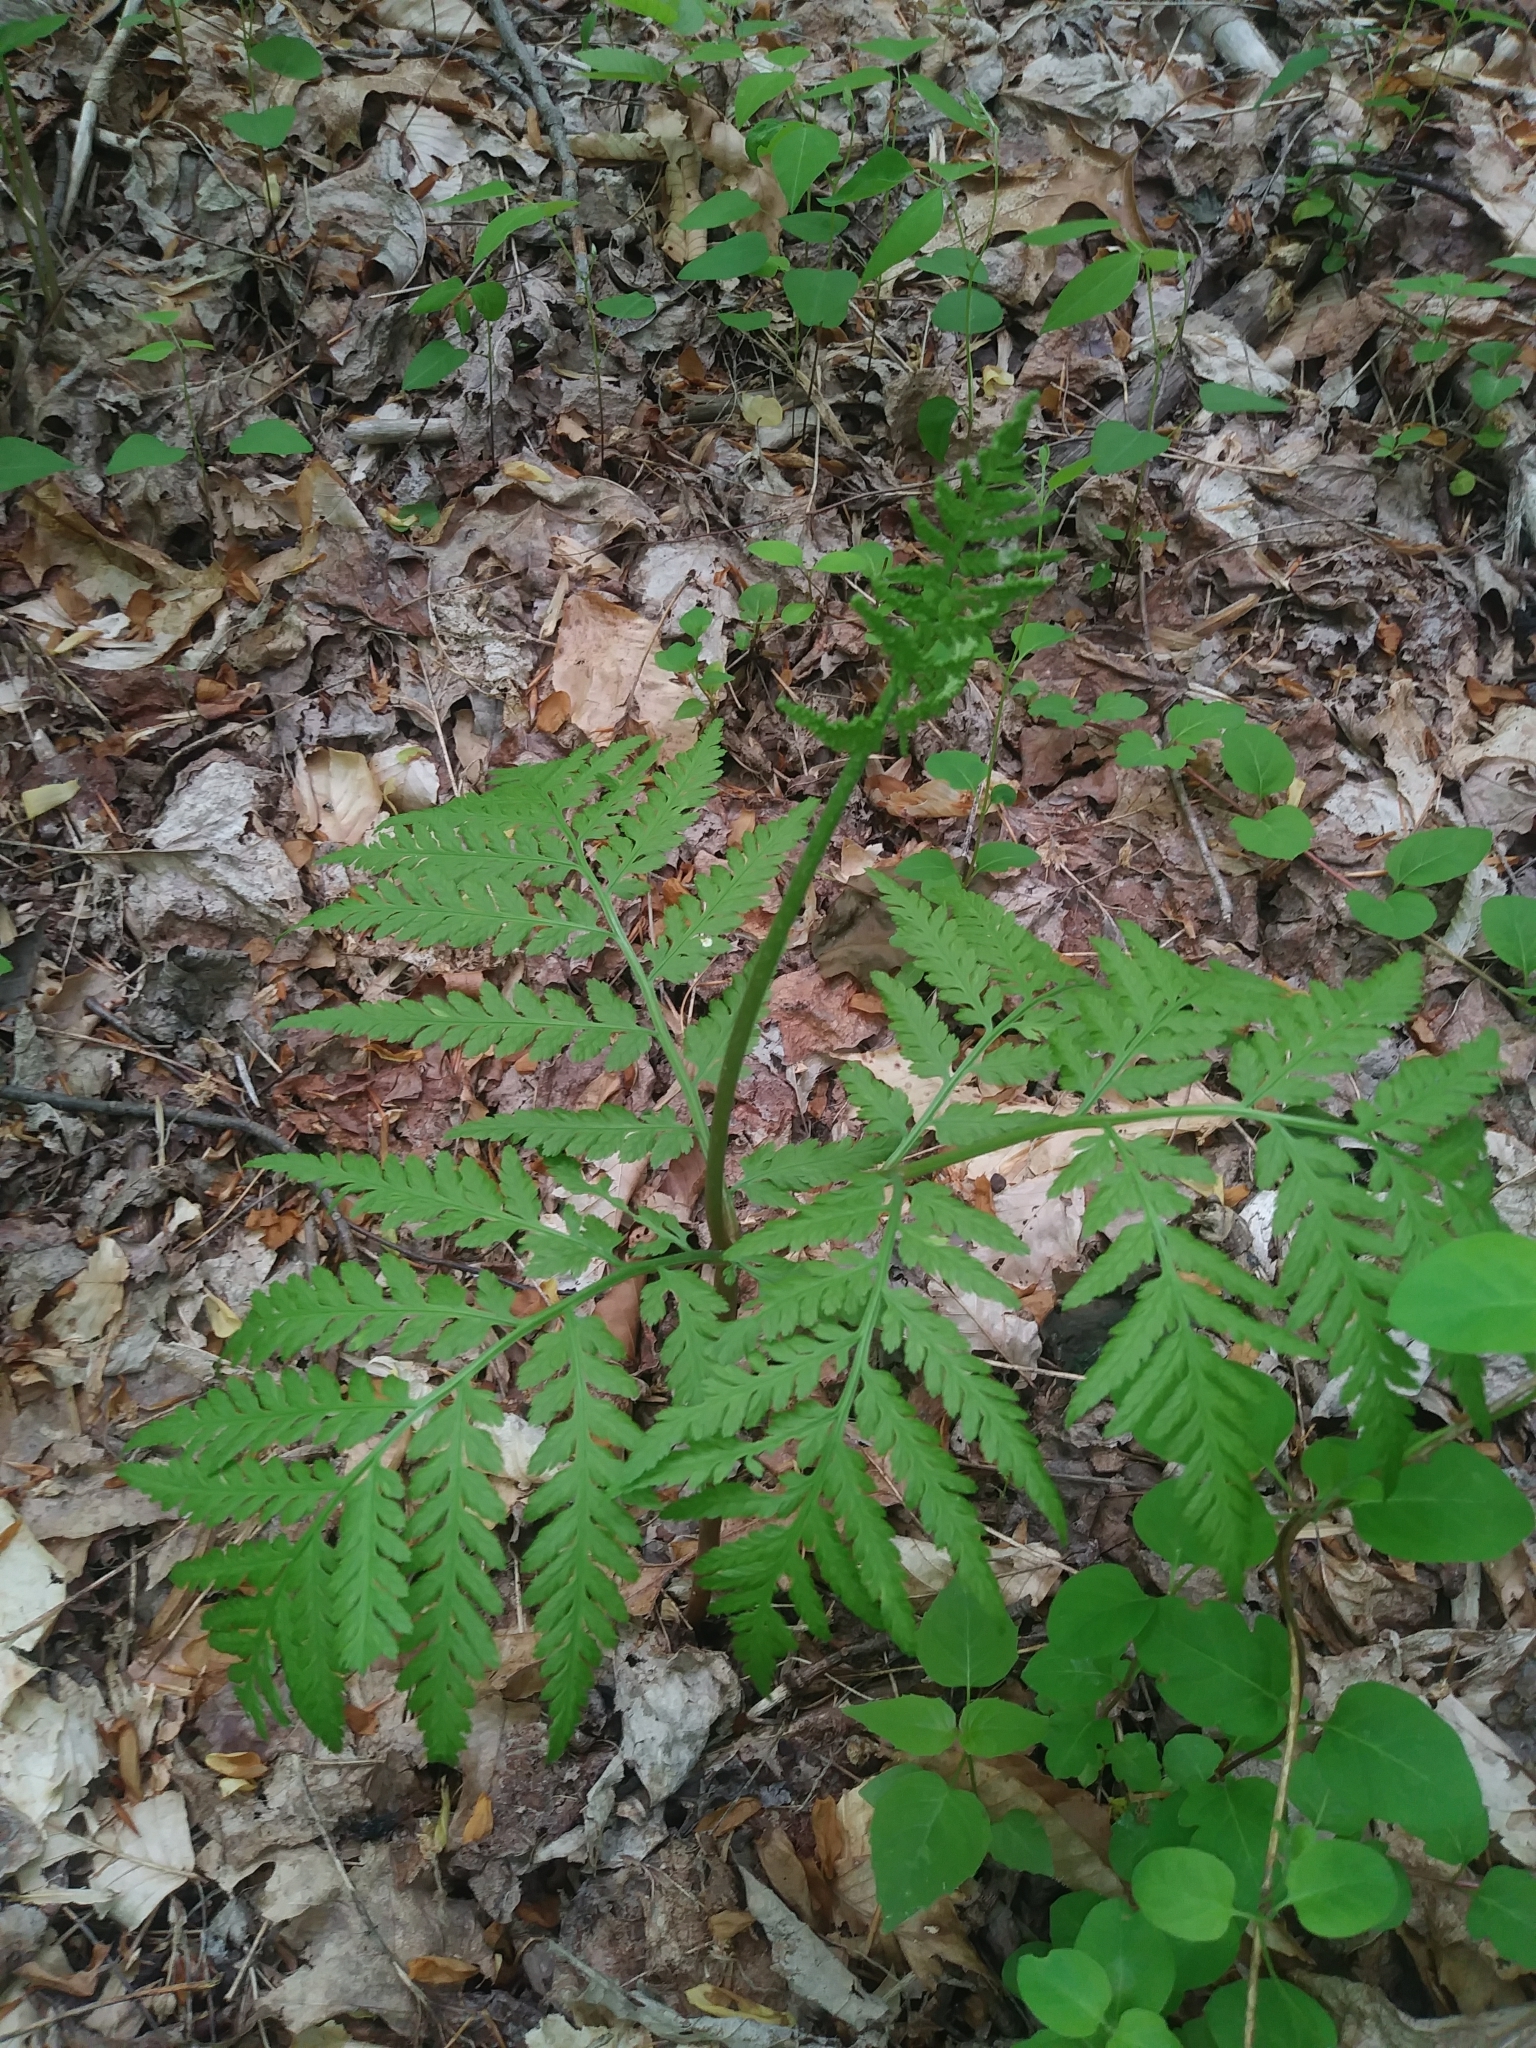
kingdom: Plantae
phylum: Tracheophyta
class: Polypodiopsida
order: Ophioglossales
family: Ophioglossaceae
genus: Botrypus
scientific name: Botrypus virginianus
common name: Common grapefern
